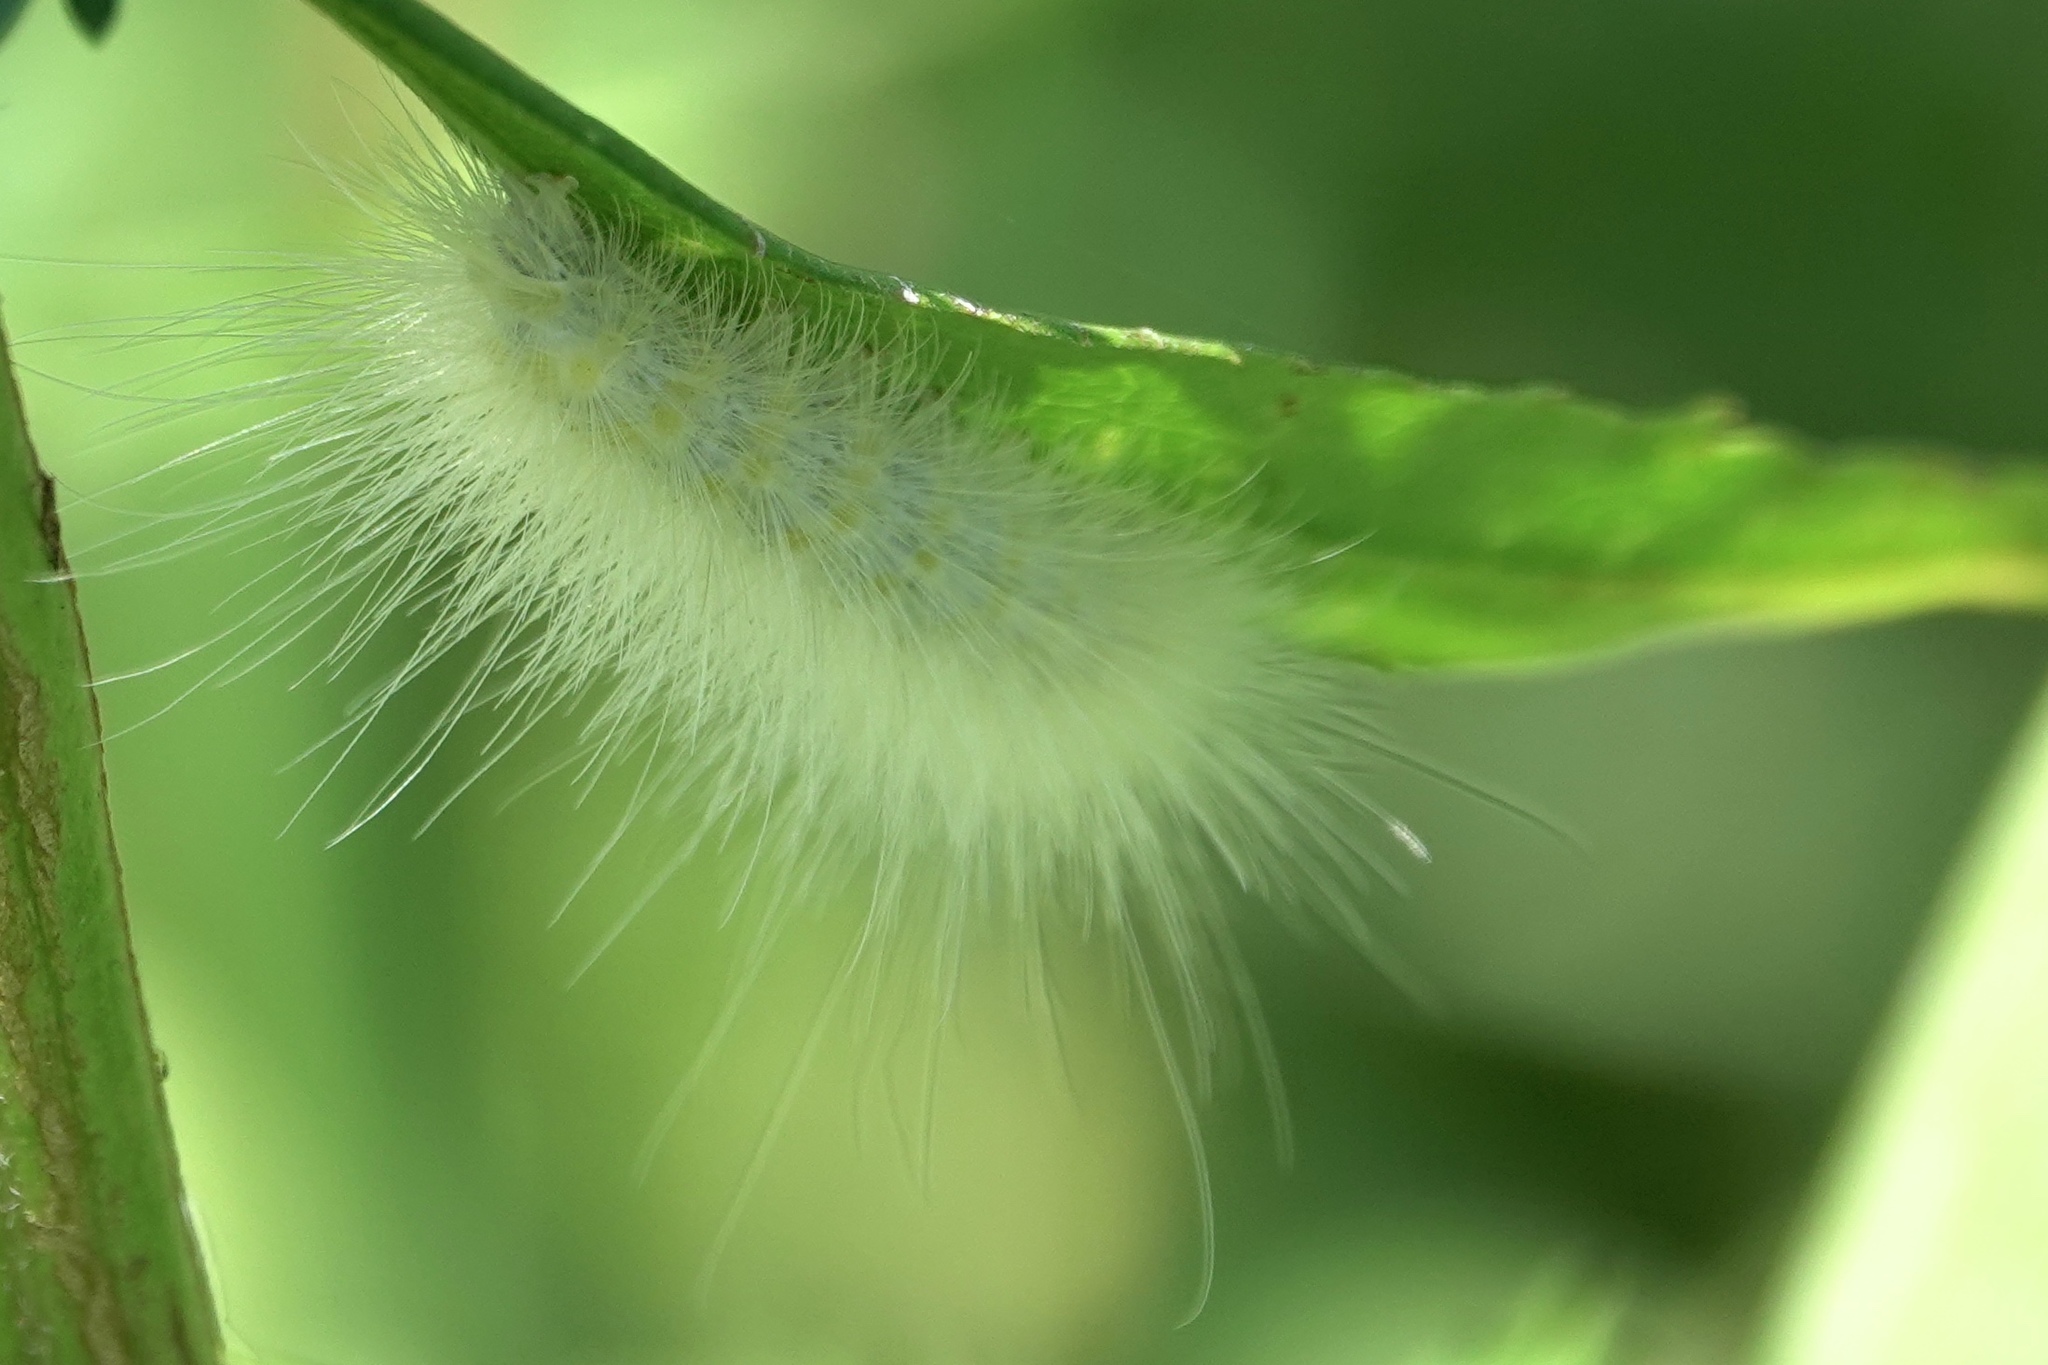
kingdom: Animalia
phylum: Arthropoda
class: Insecta
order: Lepidoptera
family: Erebidae
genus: Spilosoma
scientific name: Spilosoma virginica
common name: Virginia tiger moth
